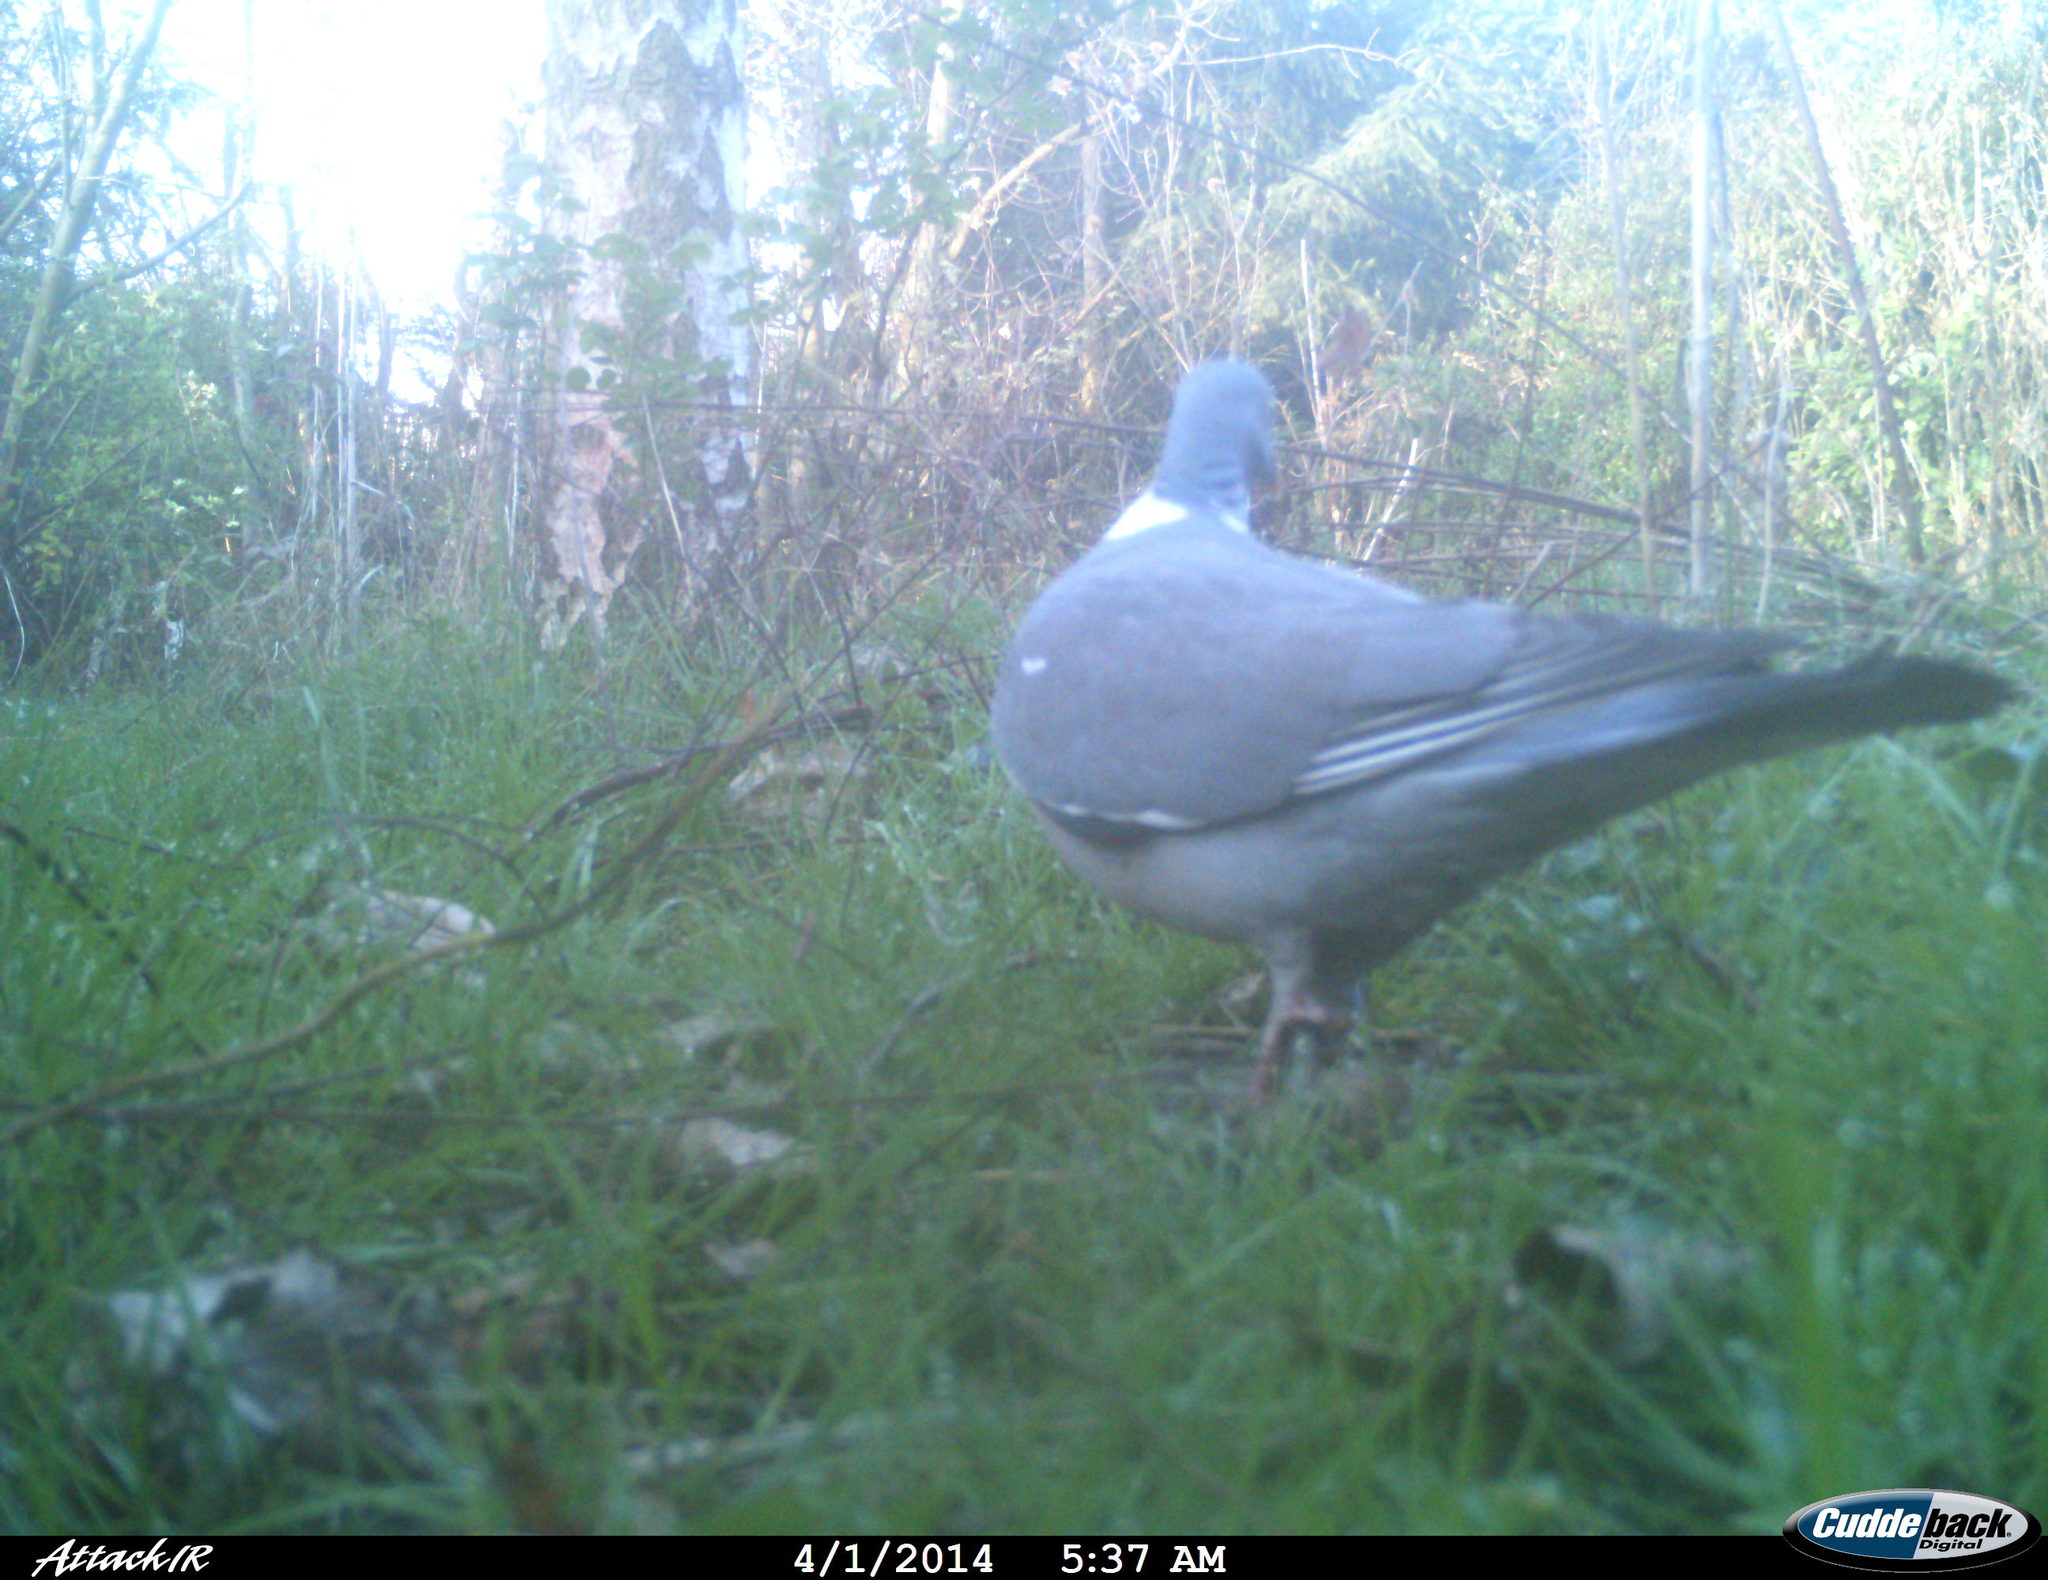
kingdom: Animalia
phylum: Chordata
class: Aves
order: Columbiformes
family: Columbidae
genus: Columba
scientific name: Columba palumbus
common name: Common wood pigeon
